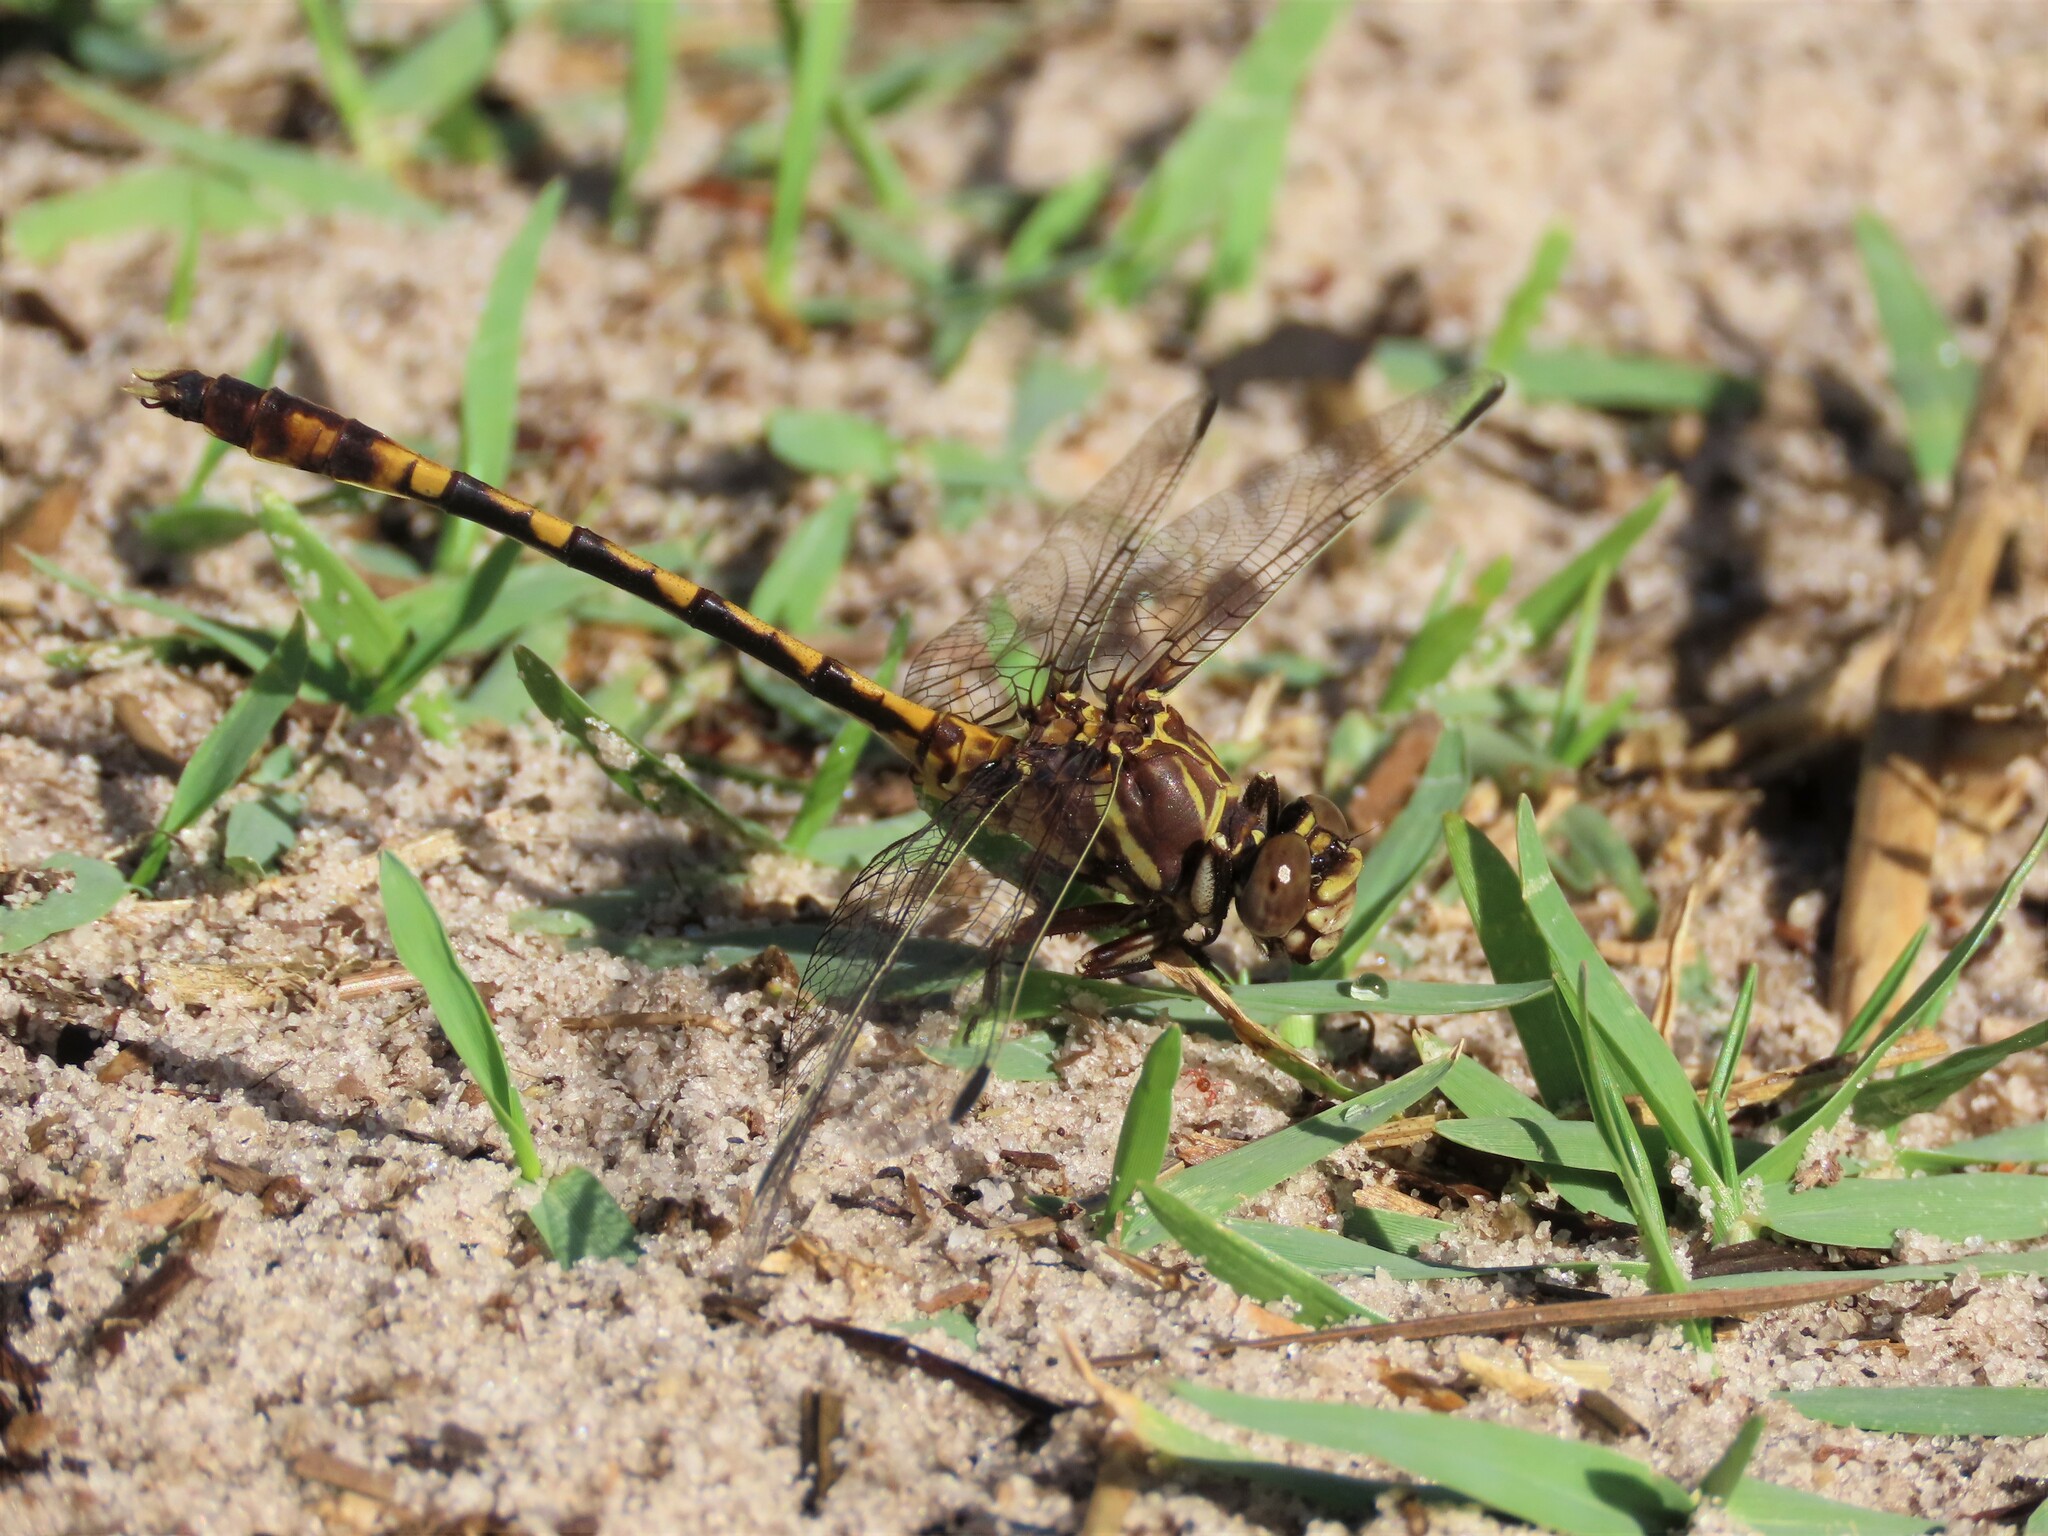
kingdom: Animalia
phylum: Arthropoda
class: Insecta
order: Odonata
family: Gomphidae
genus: Progomphus
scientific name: Progomphus alachuensis
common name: Tawny sanddragon
